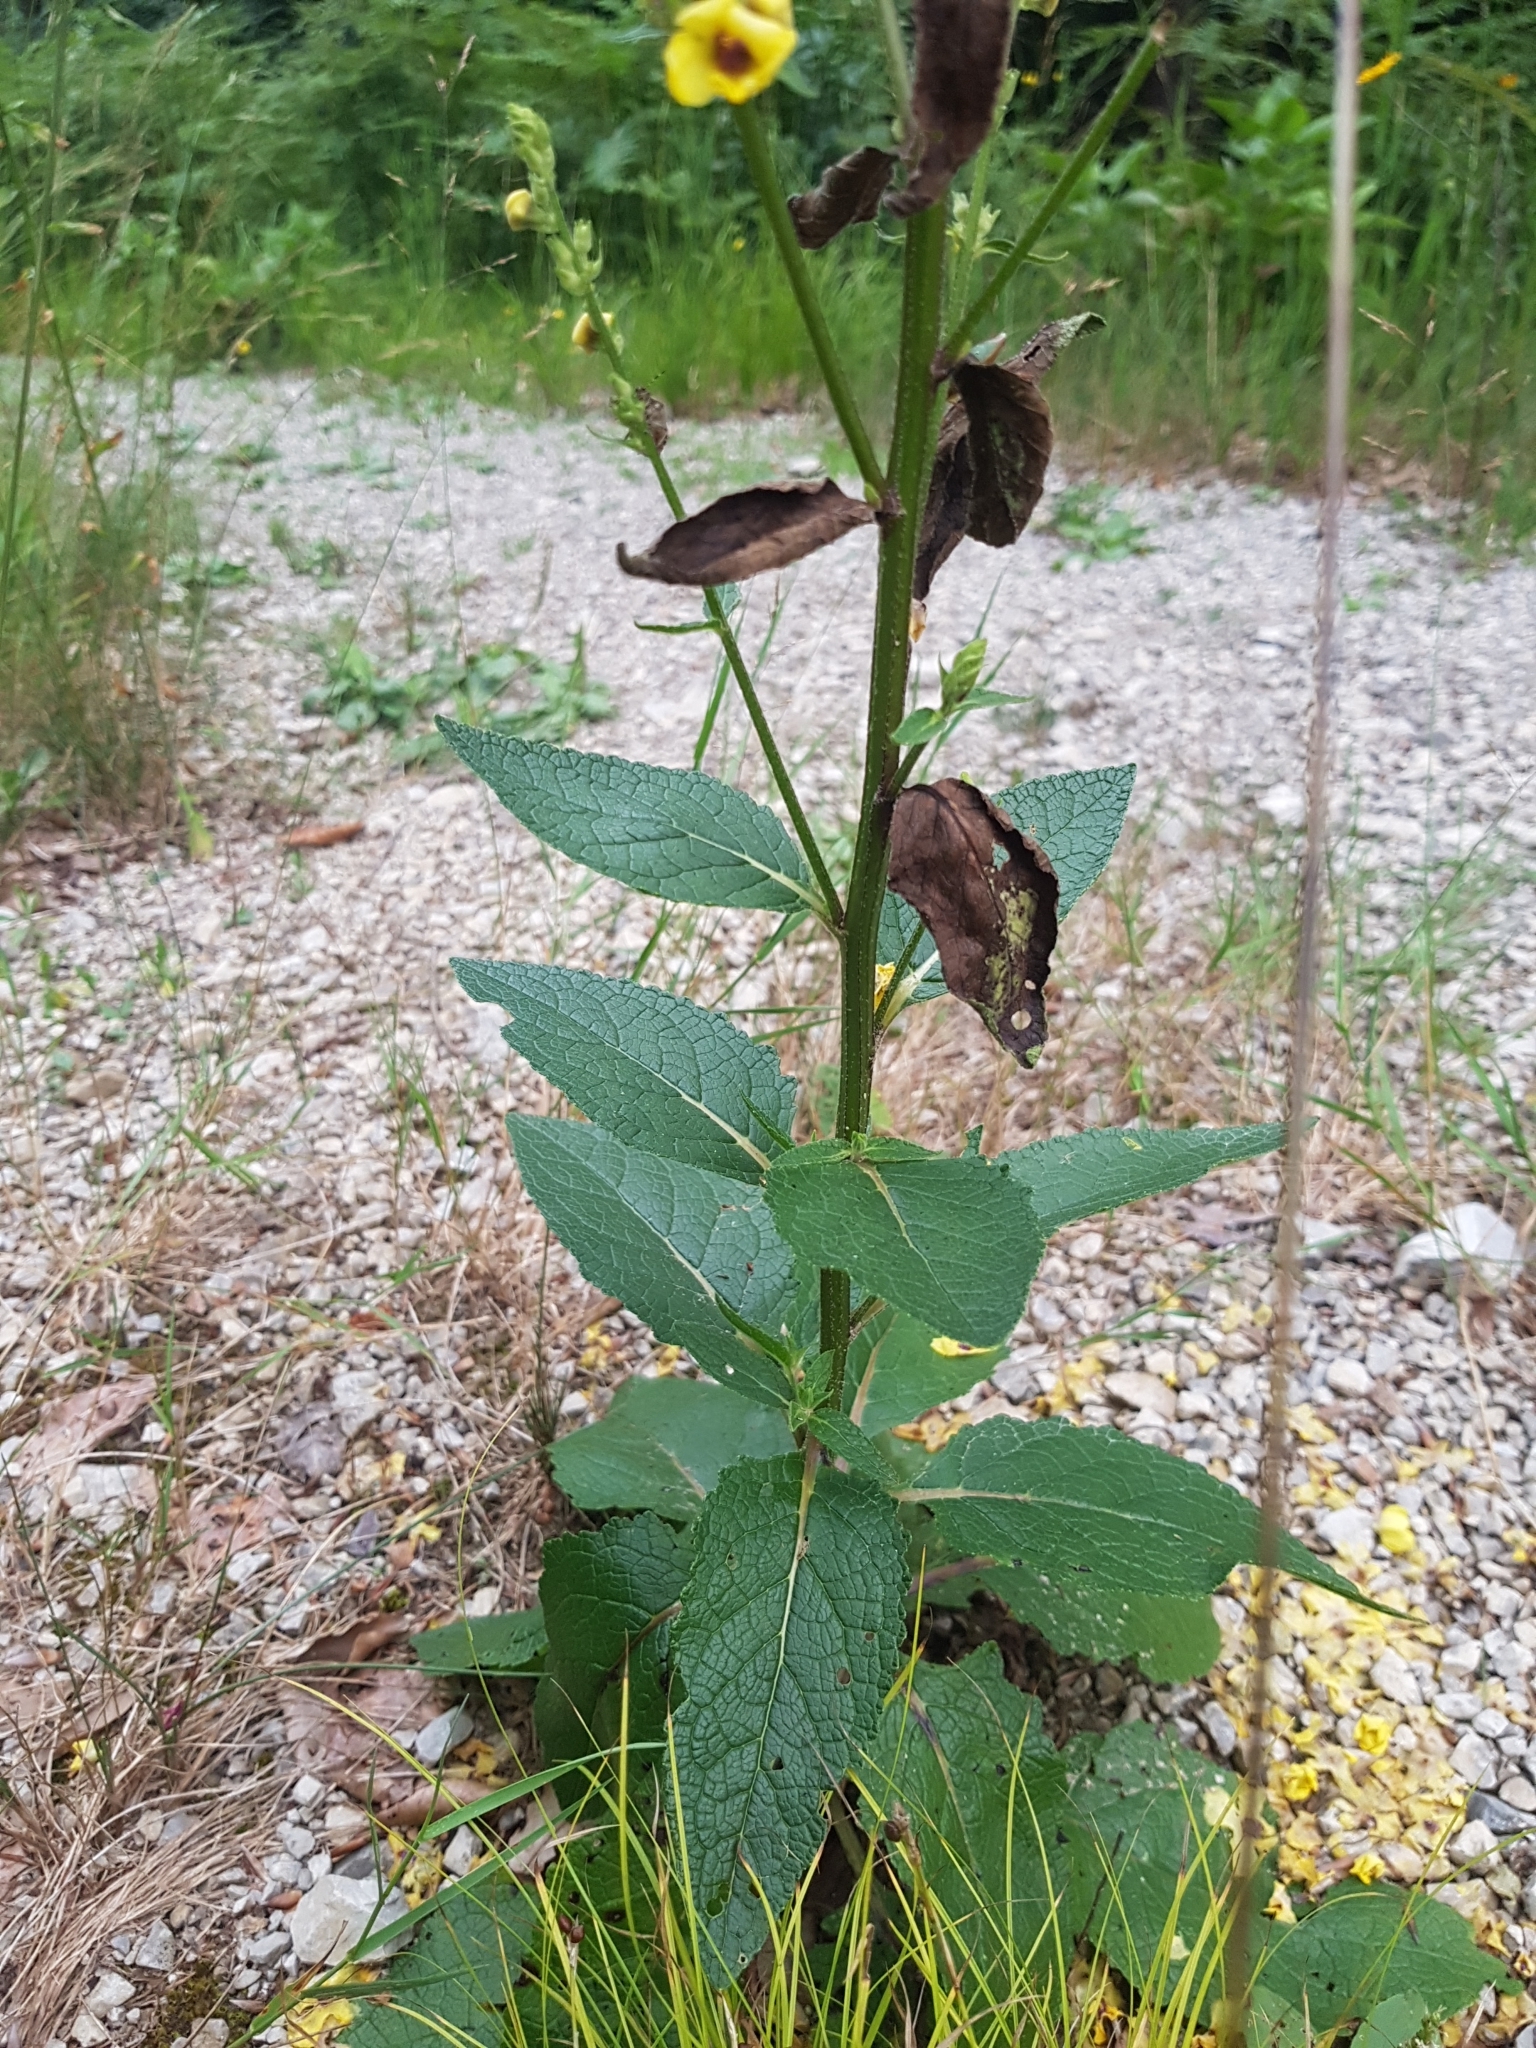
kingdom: Plantae
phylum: Tracheophyta
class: Magnoliopsida
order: Lamiales
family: Scrophulariaceae
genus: Verbascum
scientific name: Verbascum chaixii
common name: Nettle-leaved mullein
